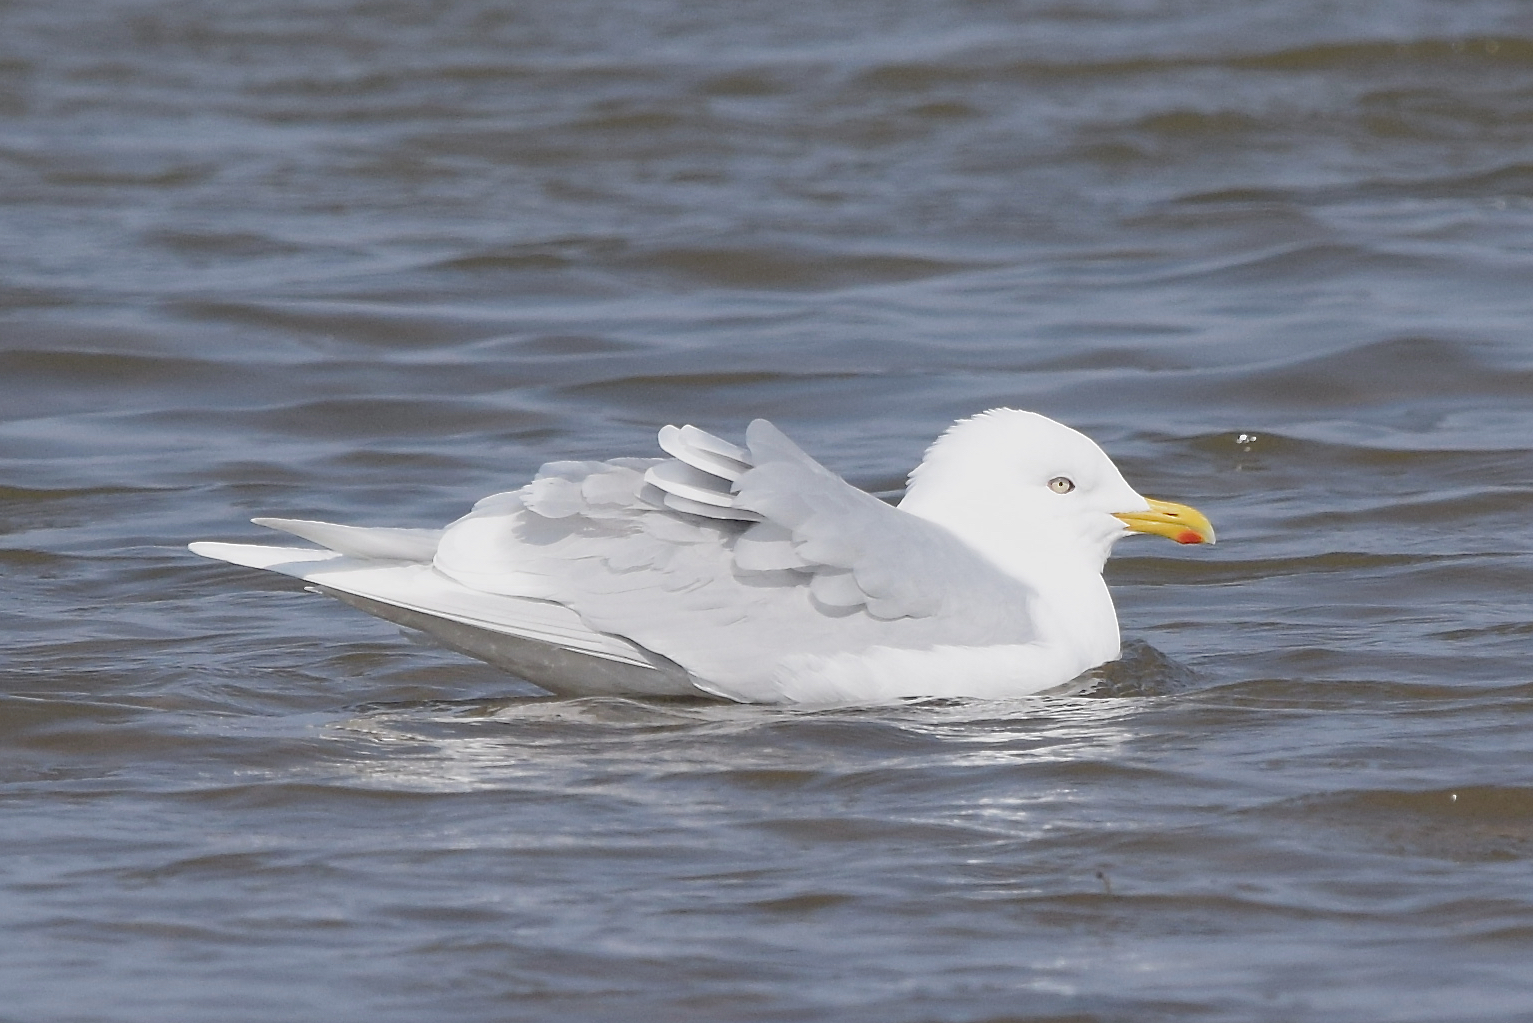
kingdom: Animalia
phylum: Chordata
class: Aves
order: Charadriiformes
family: Laridae
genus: Larus
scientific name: Larus glaucoides
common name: Iceland gull
